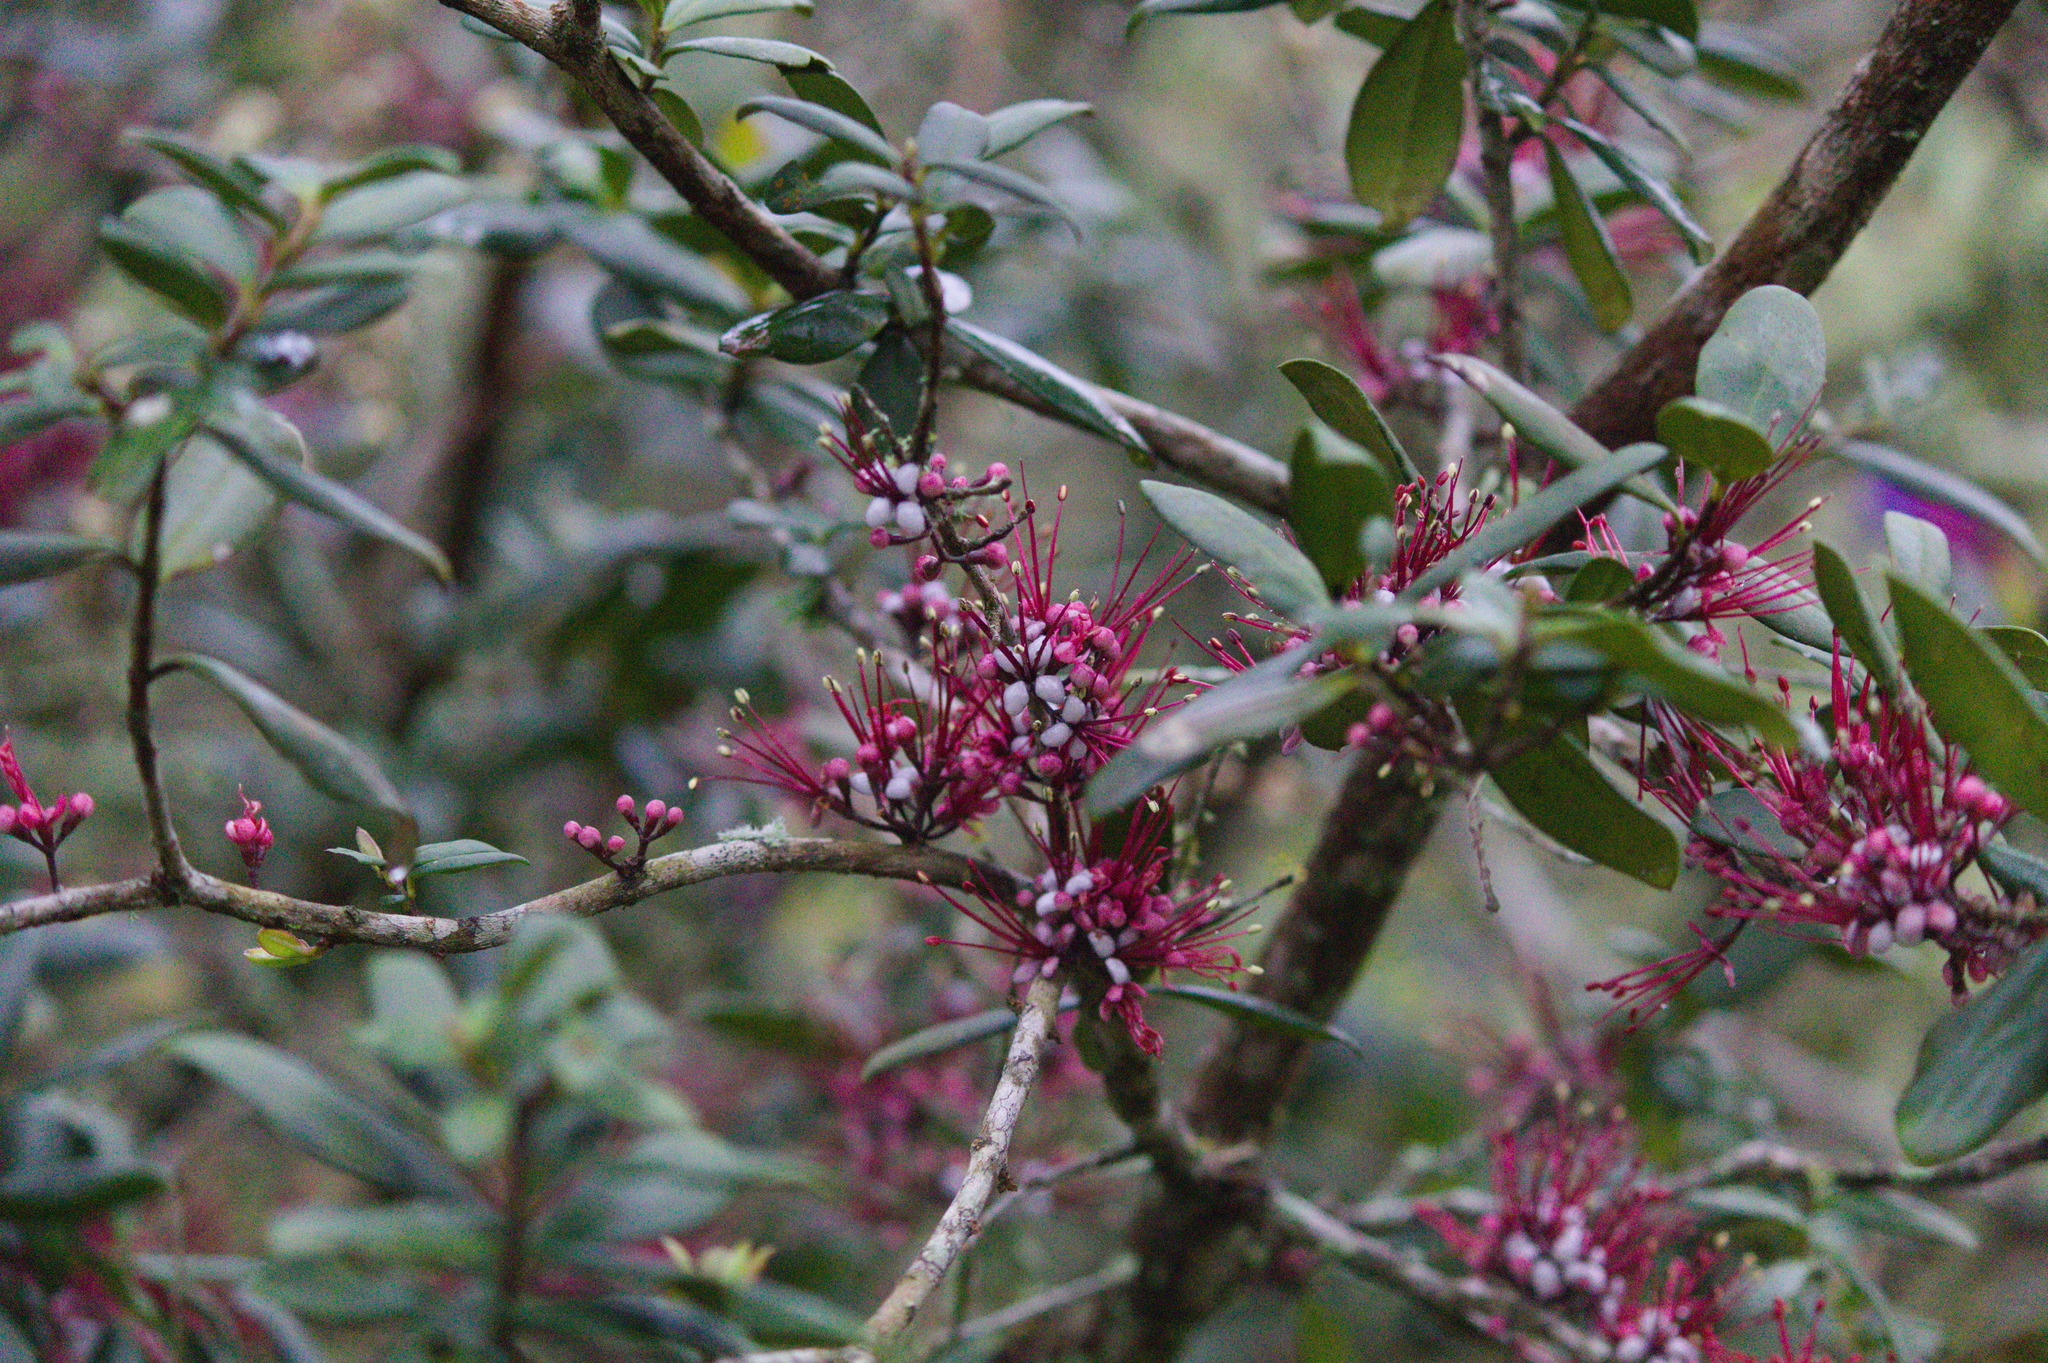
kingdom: Plantae
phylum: Tracheophyta
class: Magnoliopsida
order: Myrtales
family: Myrtaceae
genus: Myrrhinium
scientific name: Myrrhinium atropurpureum
